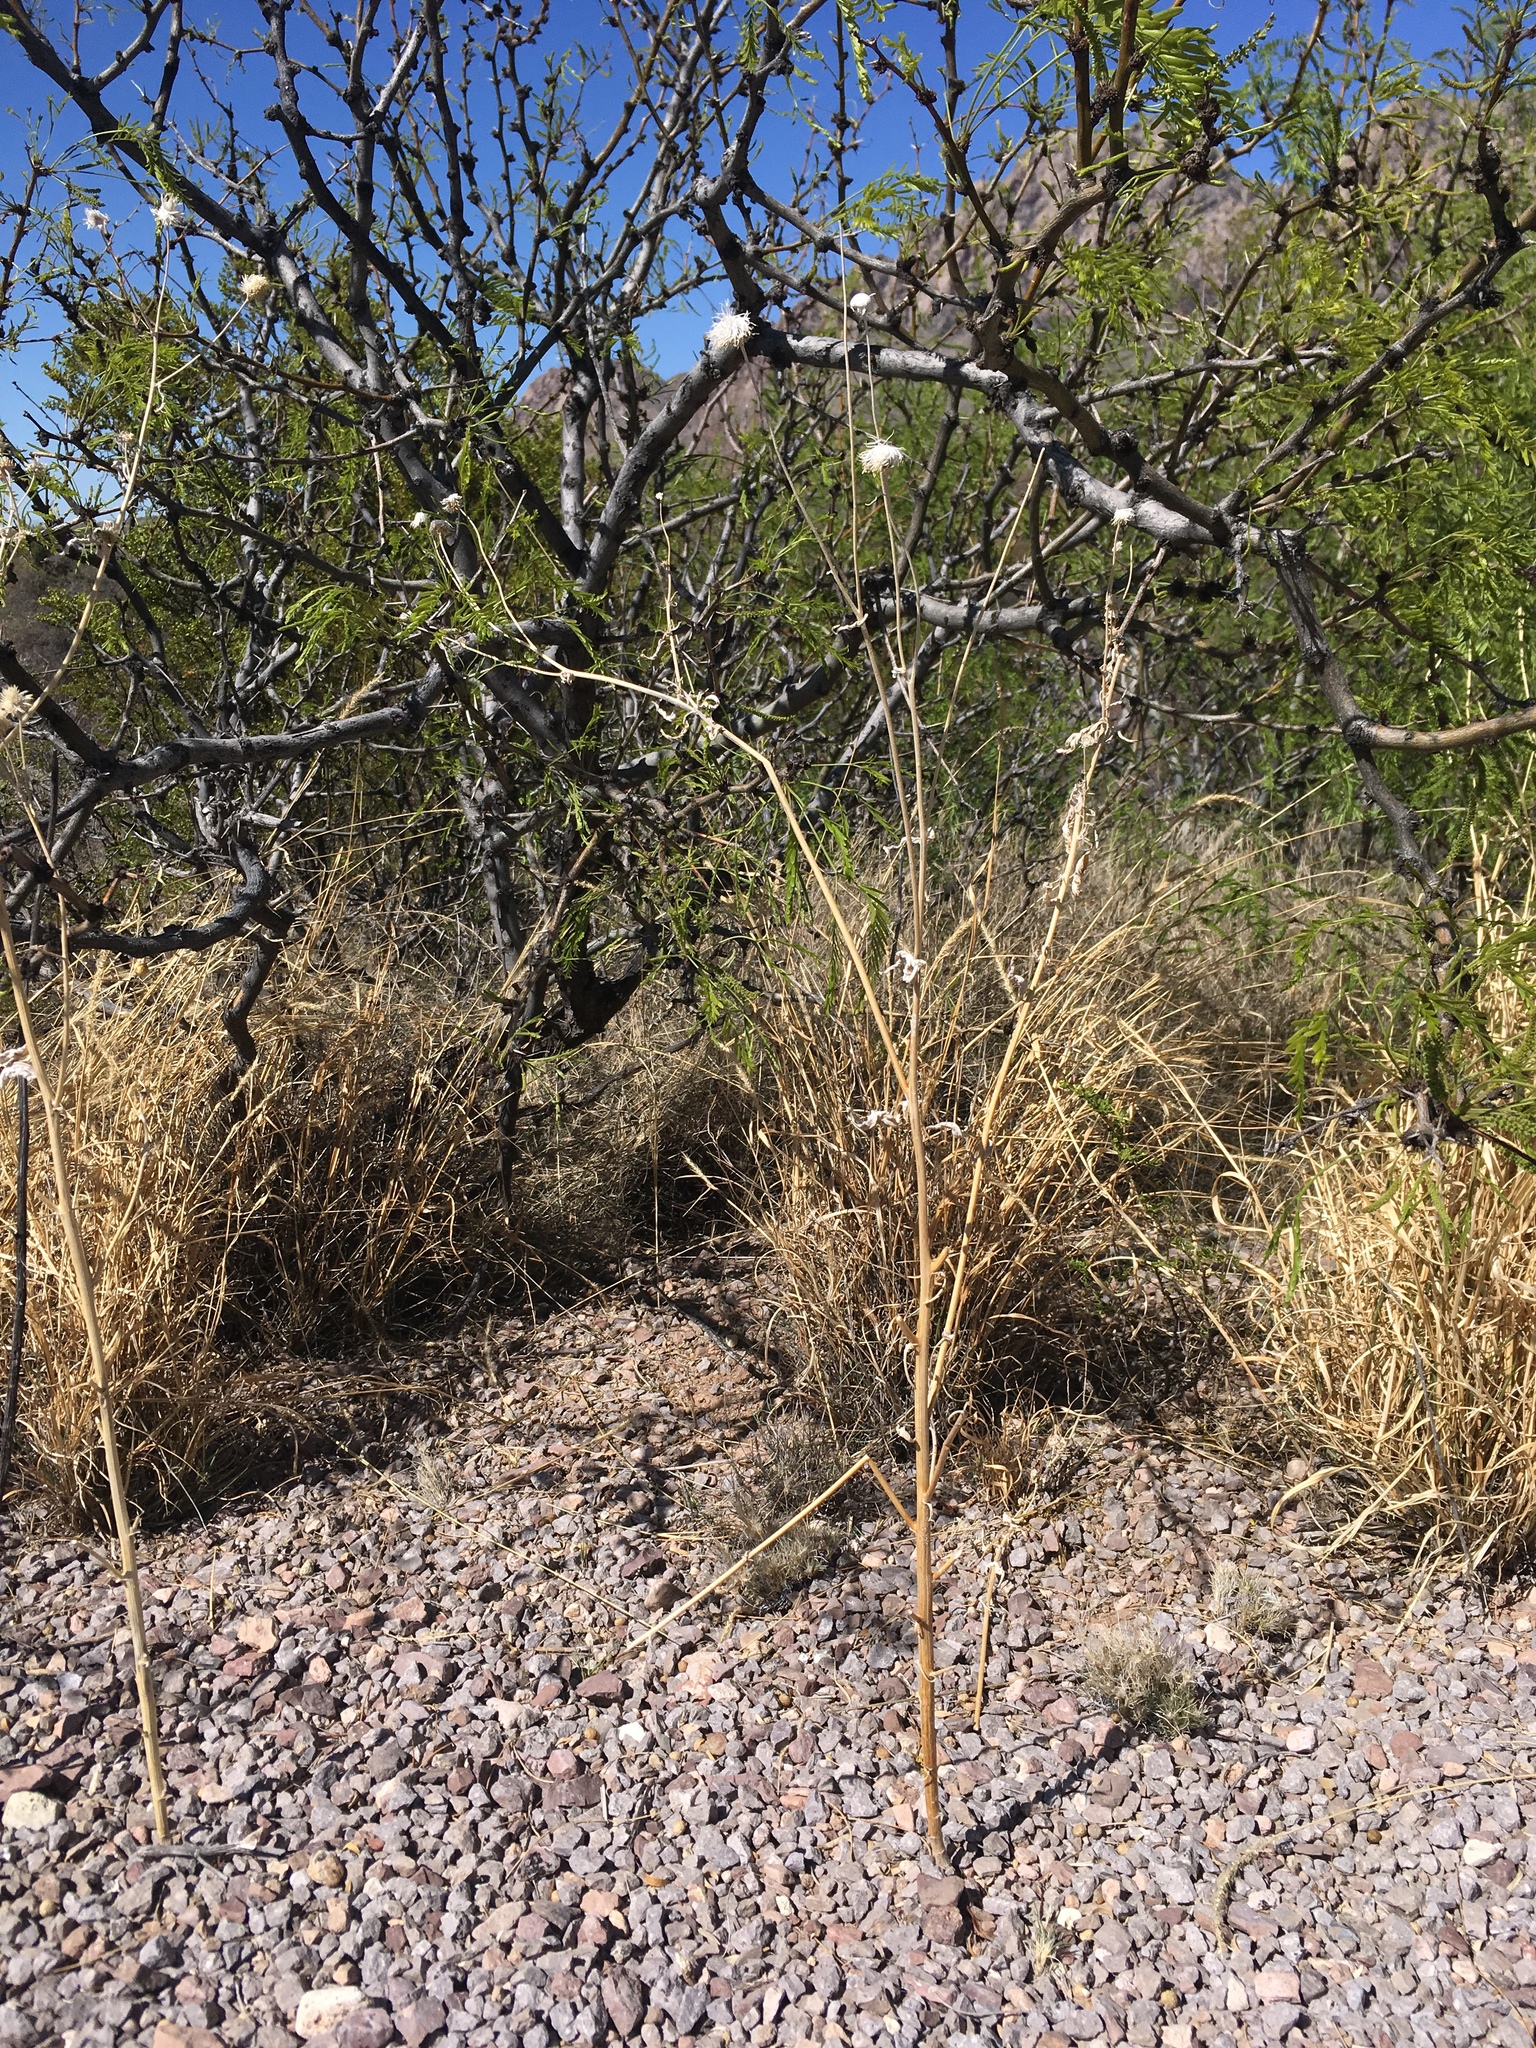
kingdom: Plantae
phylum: Tracheophyta
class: Magnoliopsida
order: Asterales
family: Asteraceae
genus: Verbesina
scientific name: Verbesina encelioides
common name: Golden crownbeard
